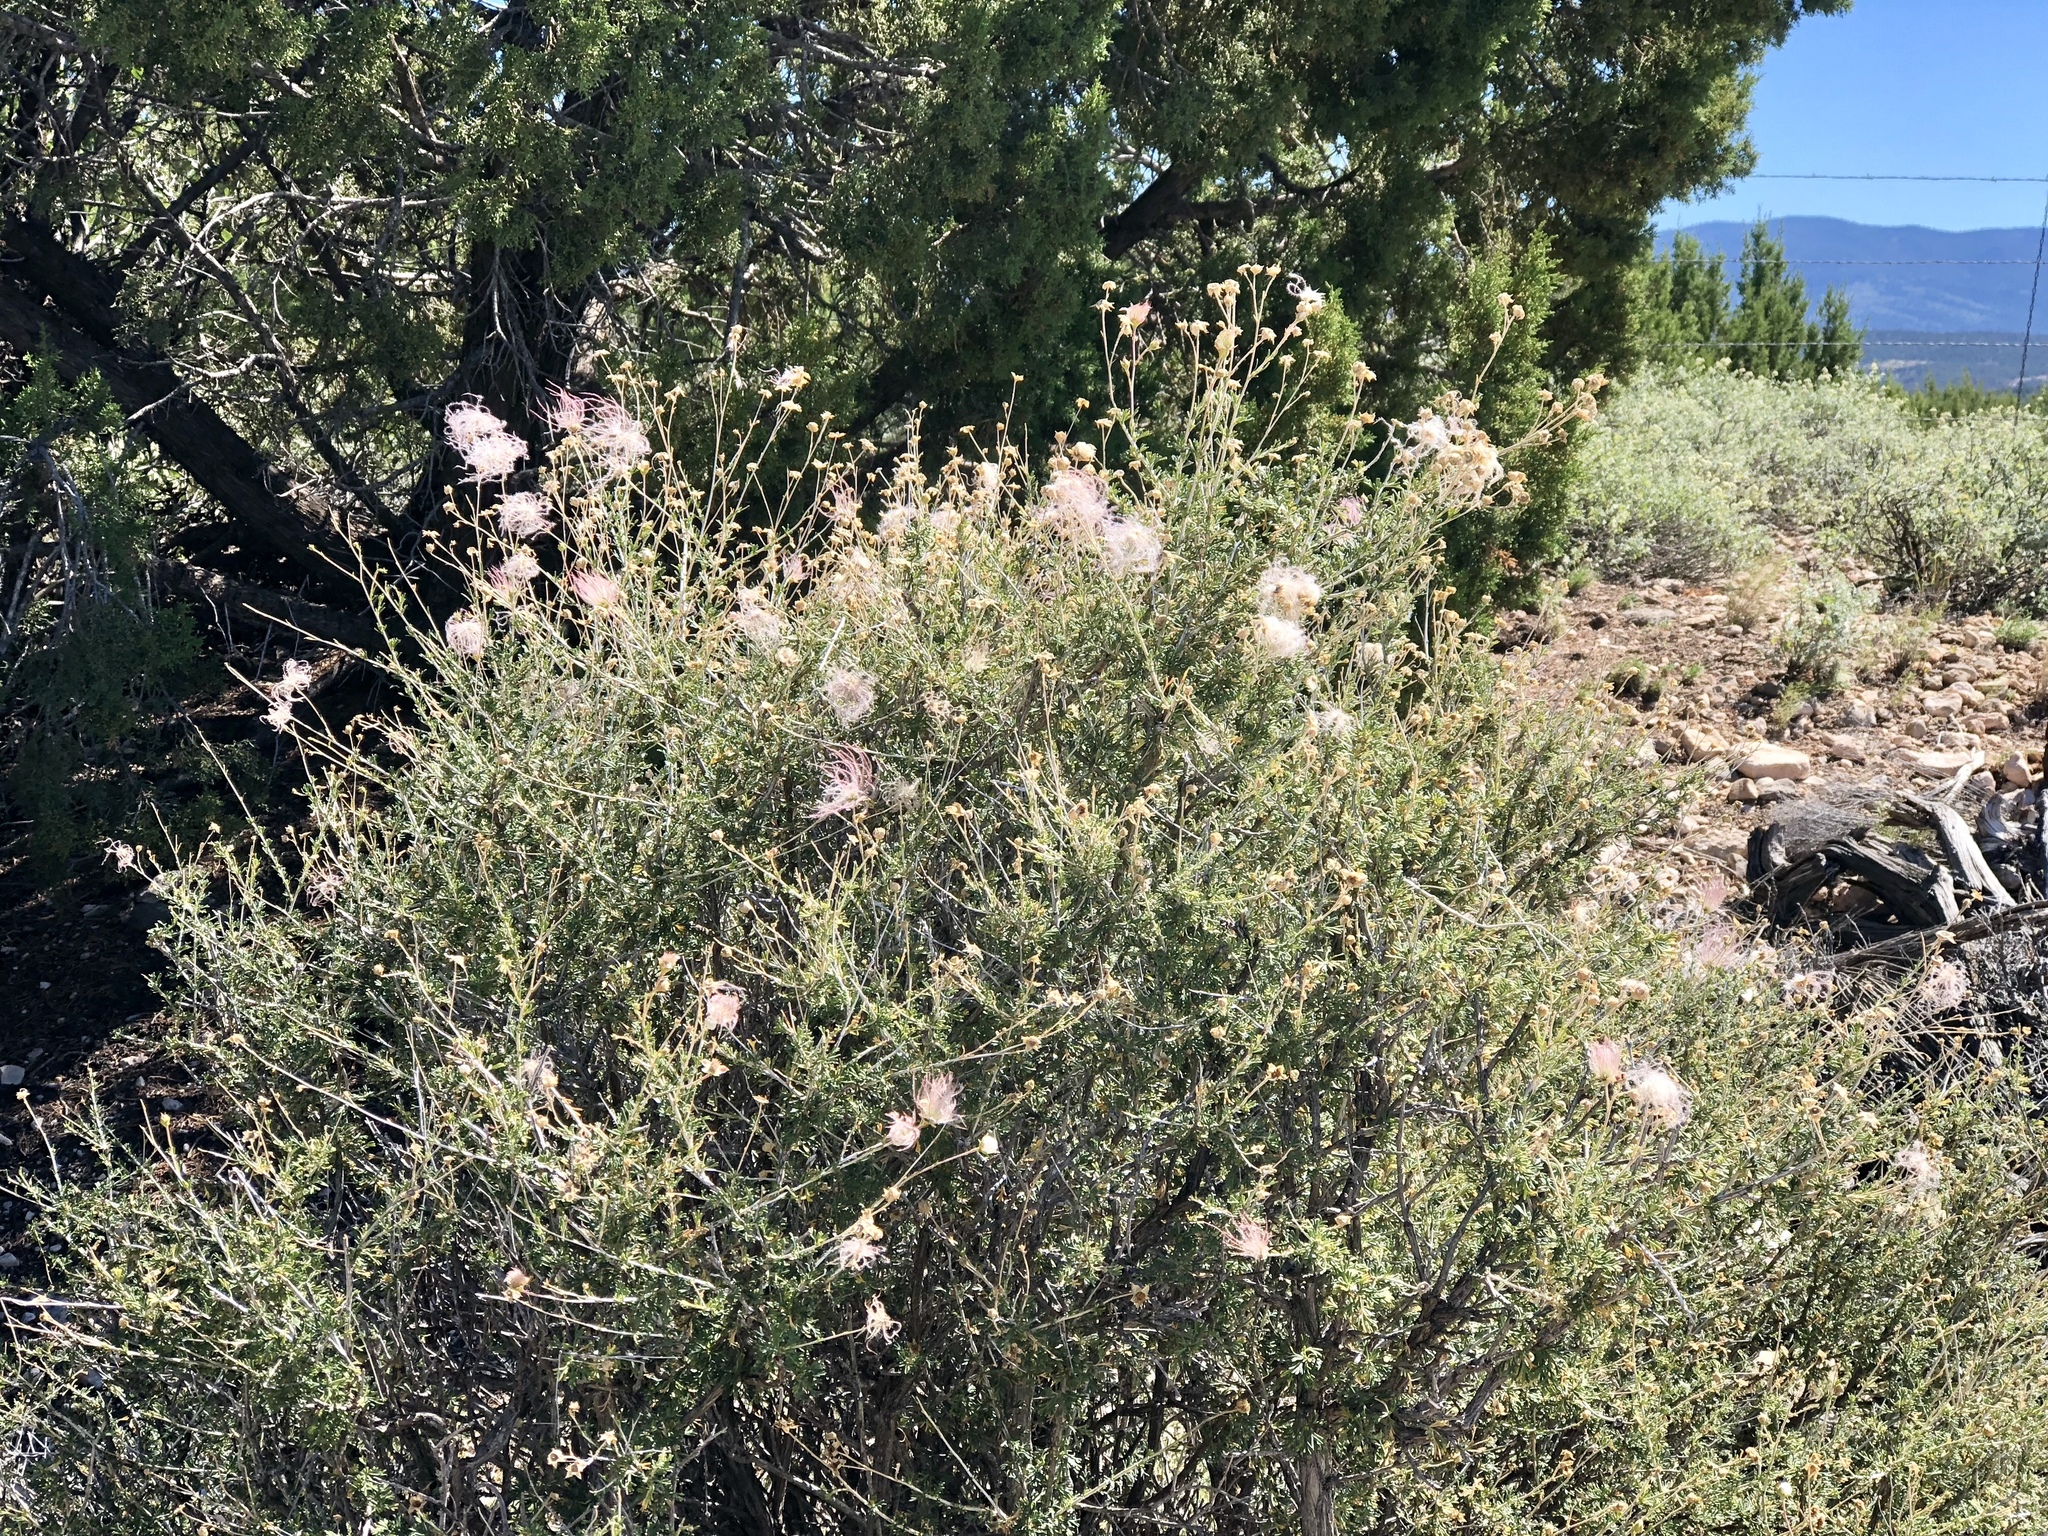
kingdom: Plantae
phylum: Tracheophyta
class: Magnoliopsida
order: Rosales
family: Rosaceae
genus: Fallugia
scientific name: Fallugia paradoxa
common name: Apache-plume
